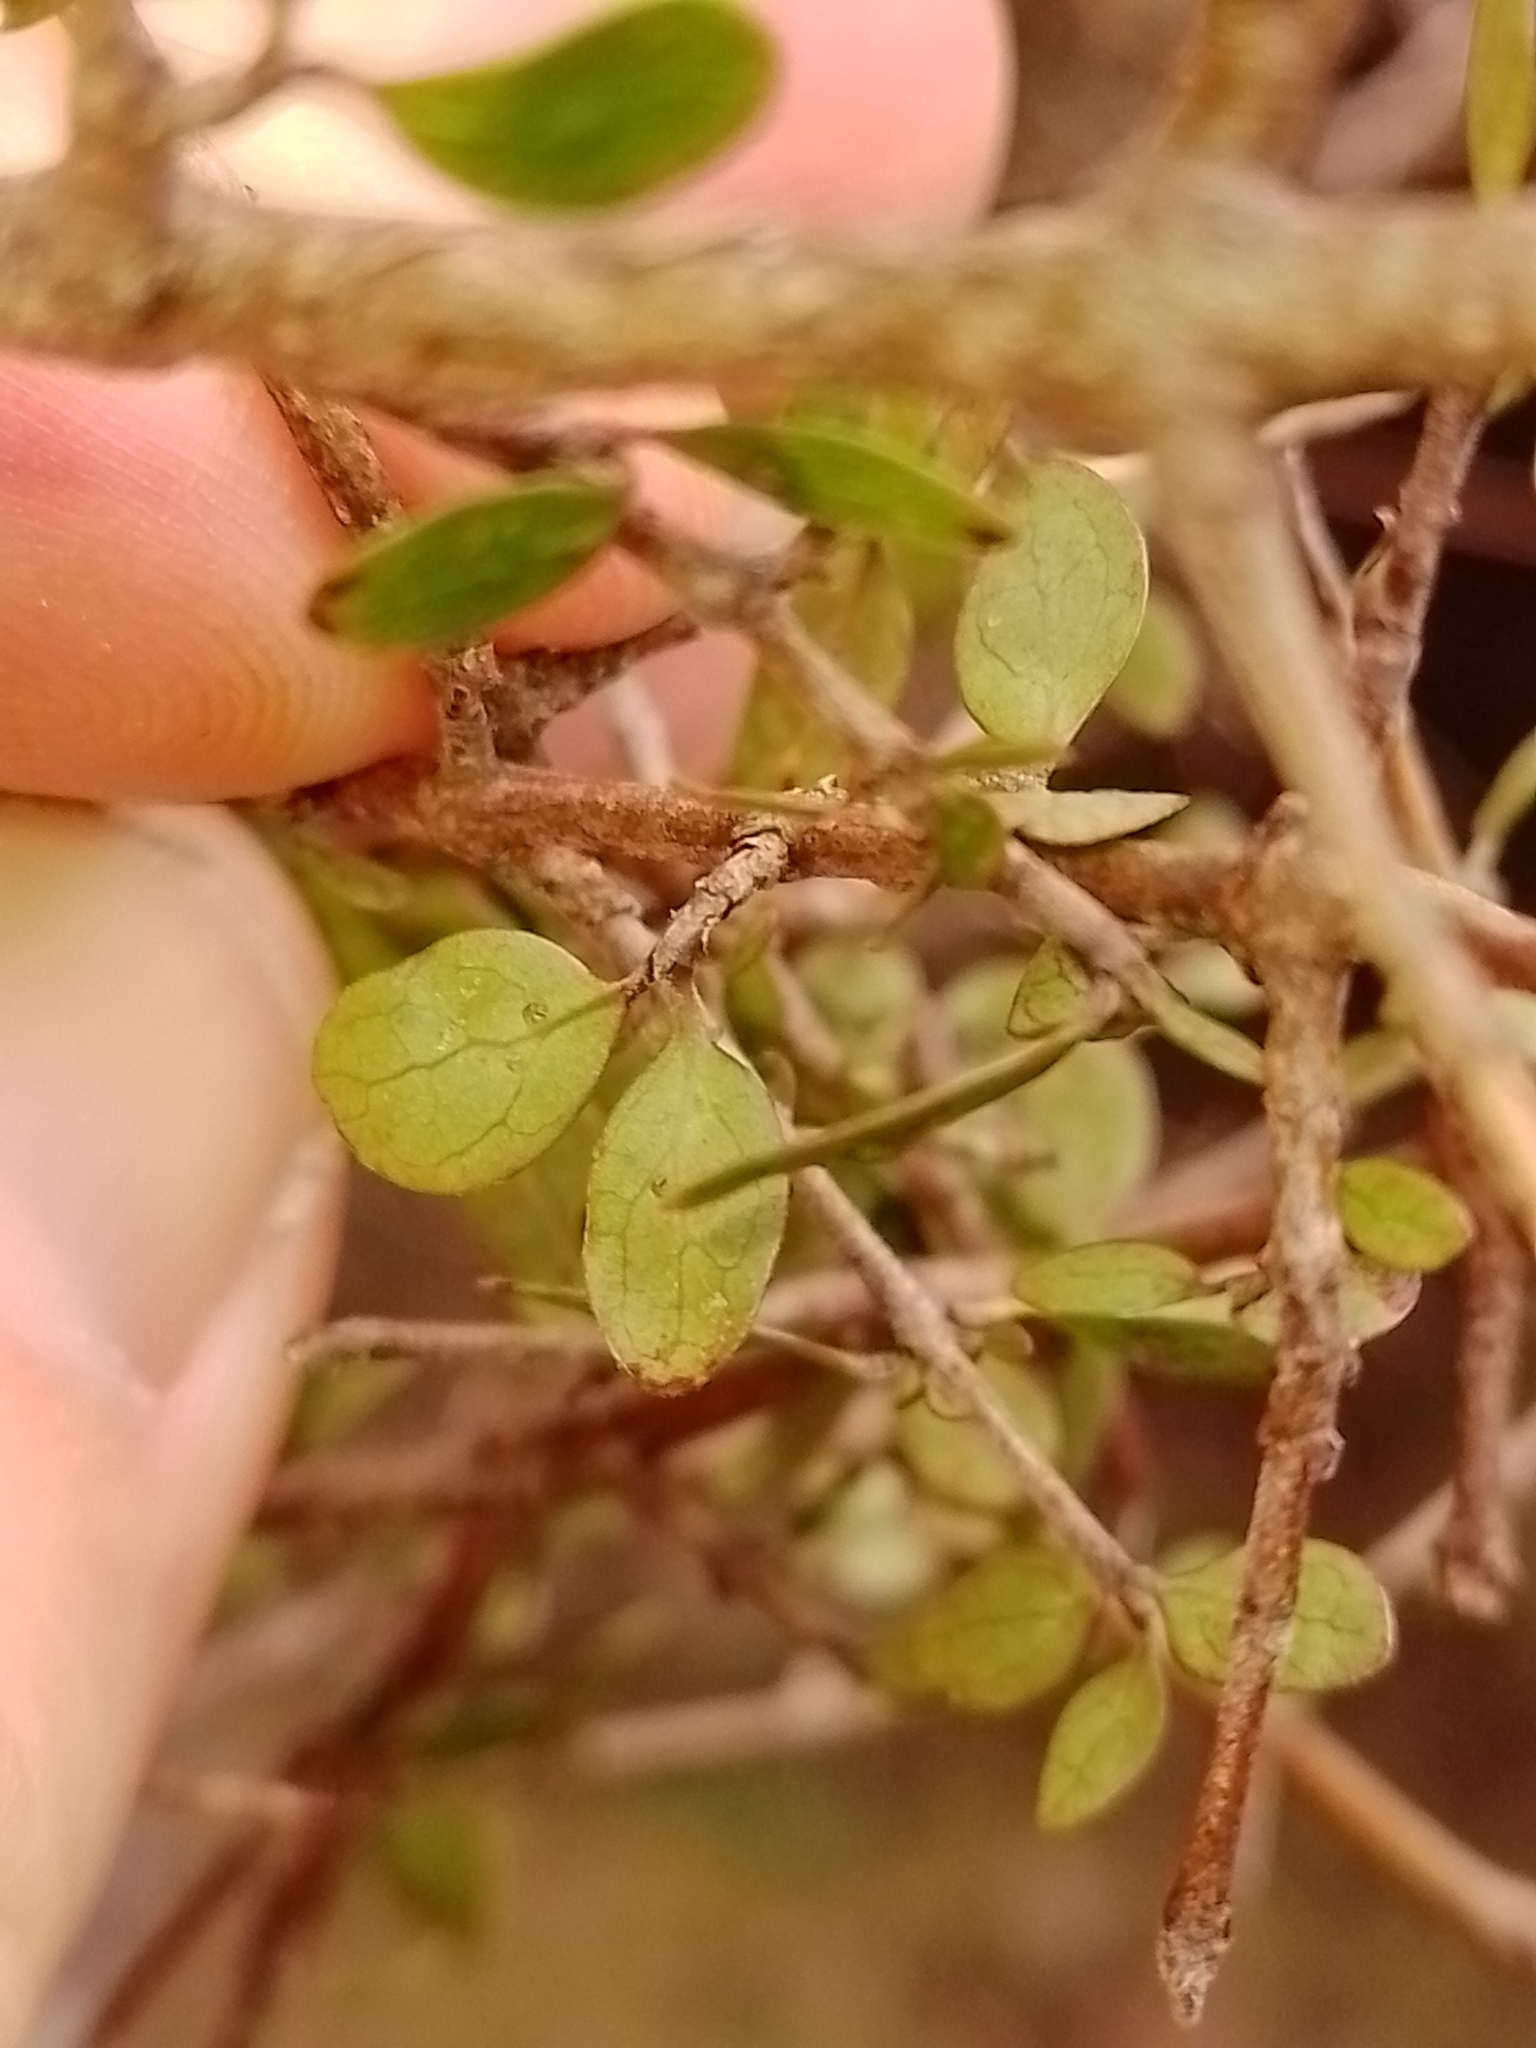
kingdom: Plantae
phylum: Tracheophyta
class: Magnoliopsida
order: Gentianales
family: Rubiaceae
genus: Coprosma
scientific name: Coprosma wallii
